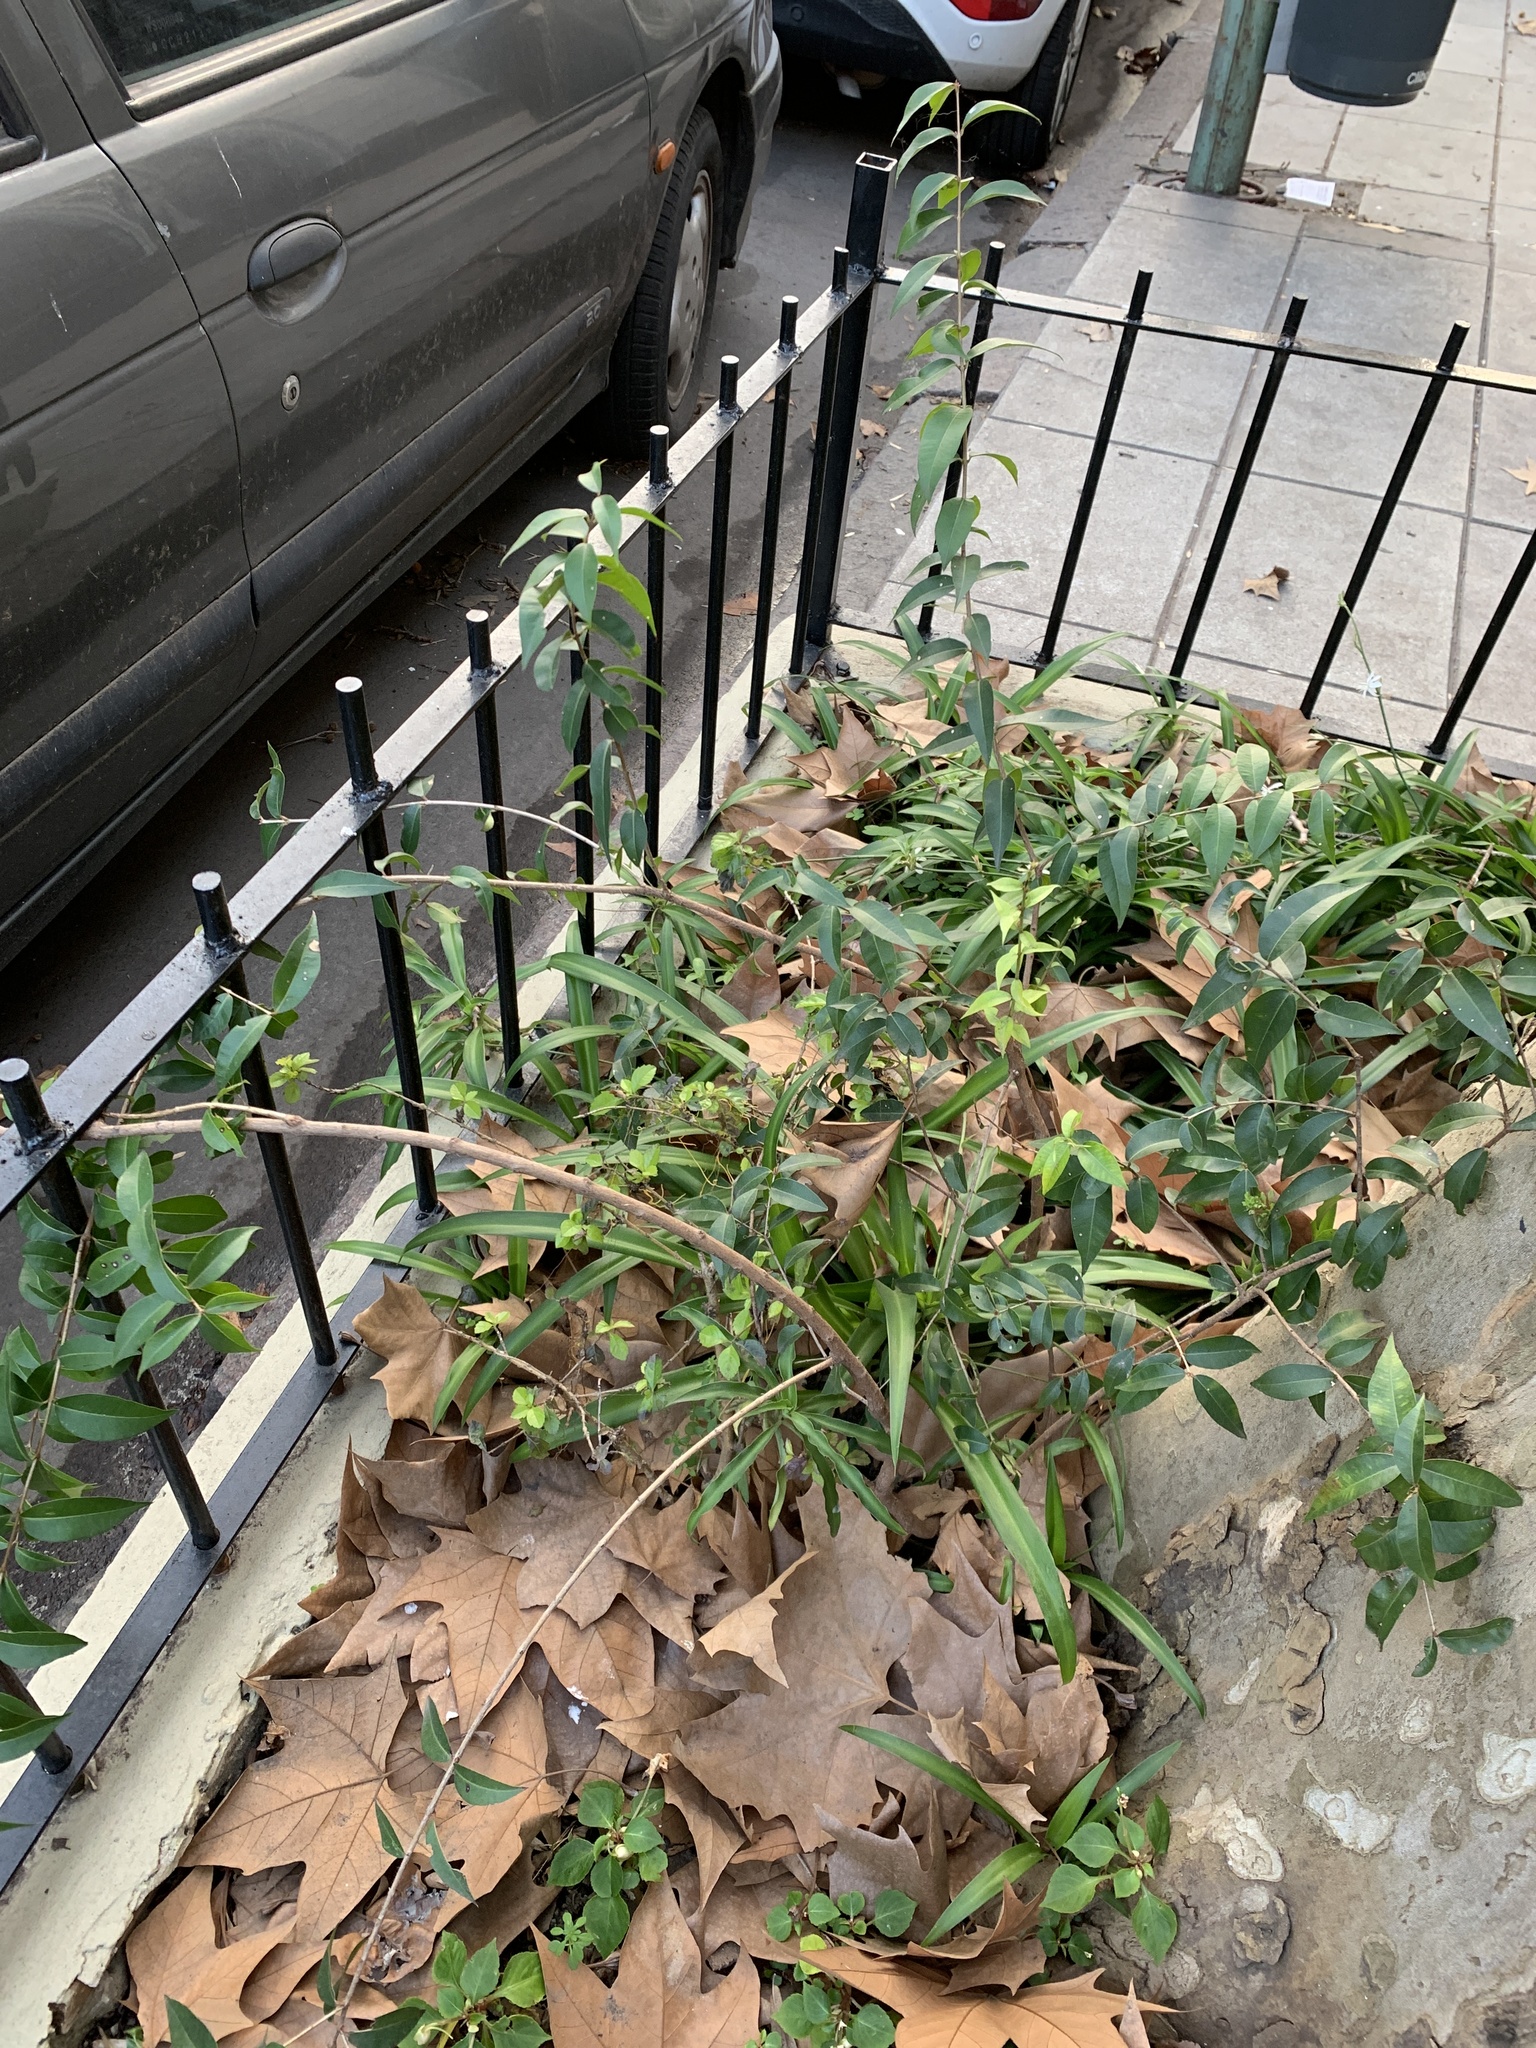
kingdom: Plantae
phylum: Tracheophyta
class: Magnoliopsida
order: Myrtales
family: Myrtaceae
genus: Blepharocalyx
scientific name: Blepharocalyx salicifolius
